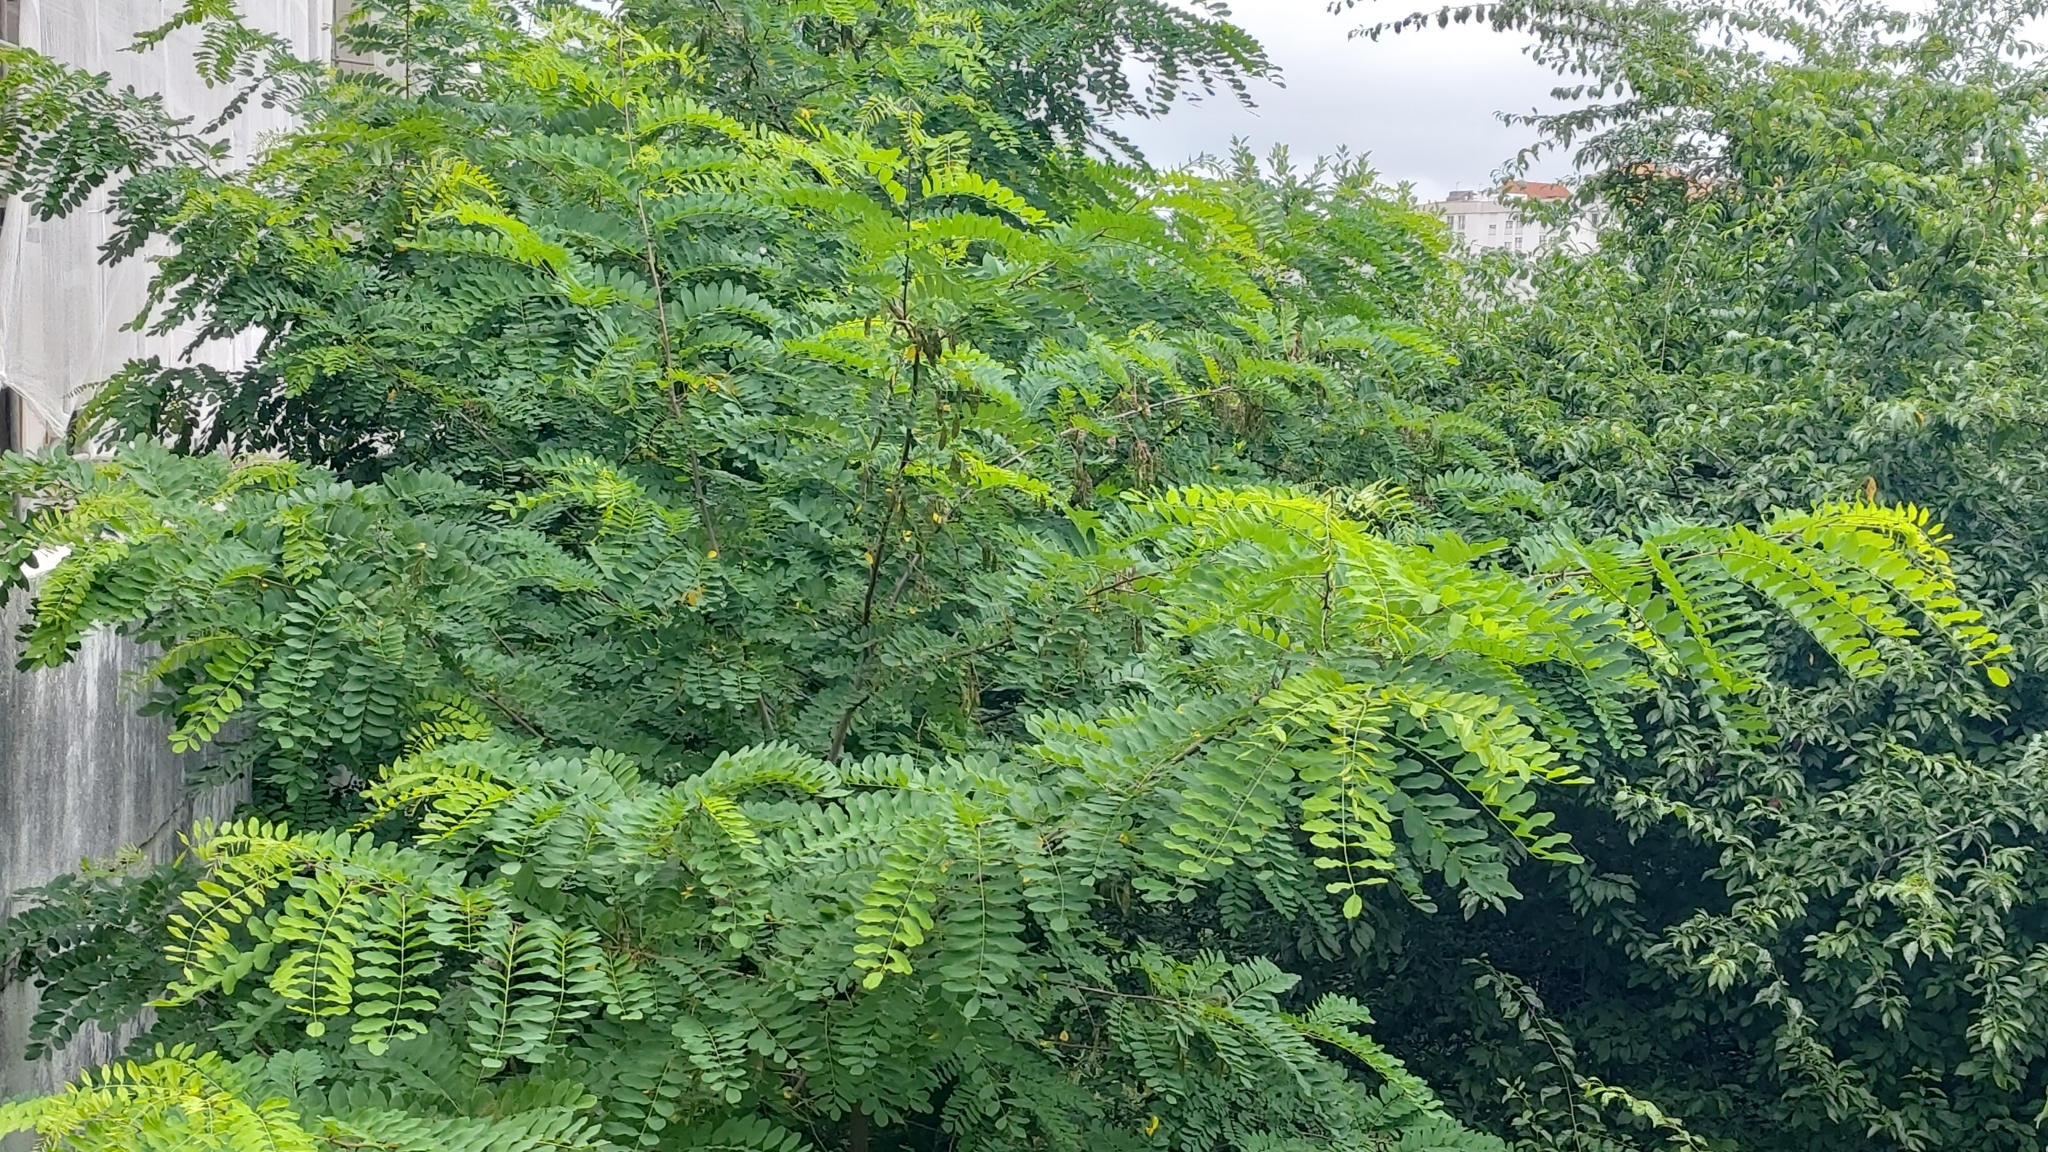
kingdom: Plantae
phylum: Tracheophyta
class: Magnoliopsida
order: Fabales
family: Fabaceae
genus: Robinia
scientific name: Robinia pseudoacacia
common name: Black locust
